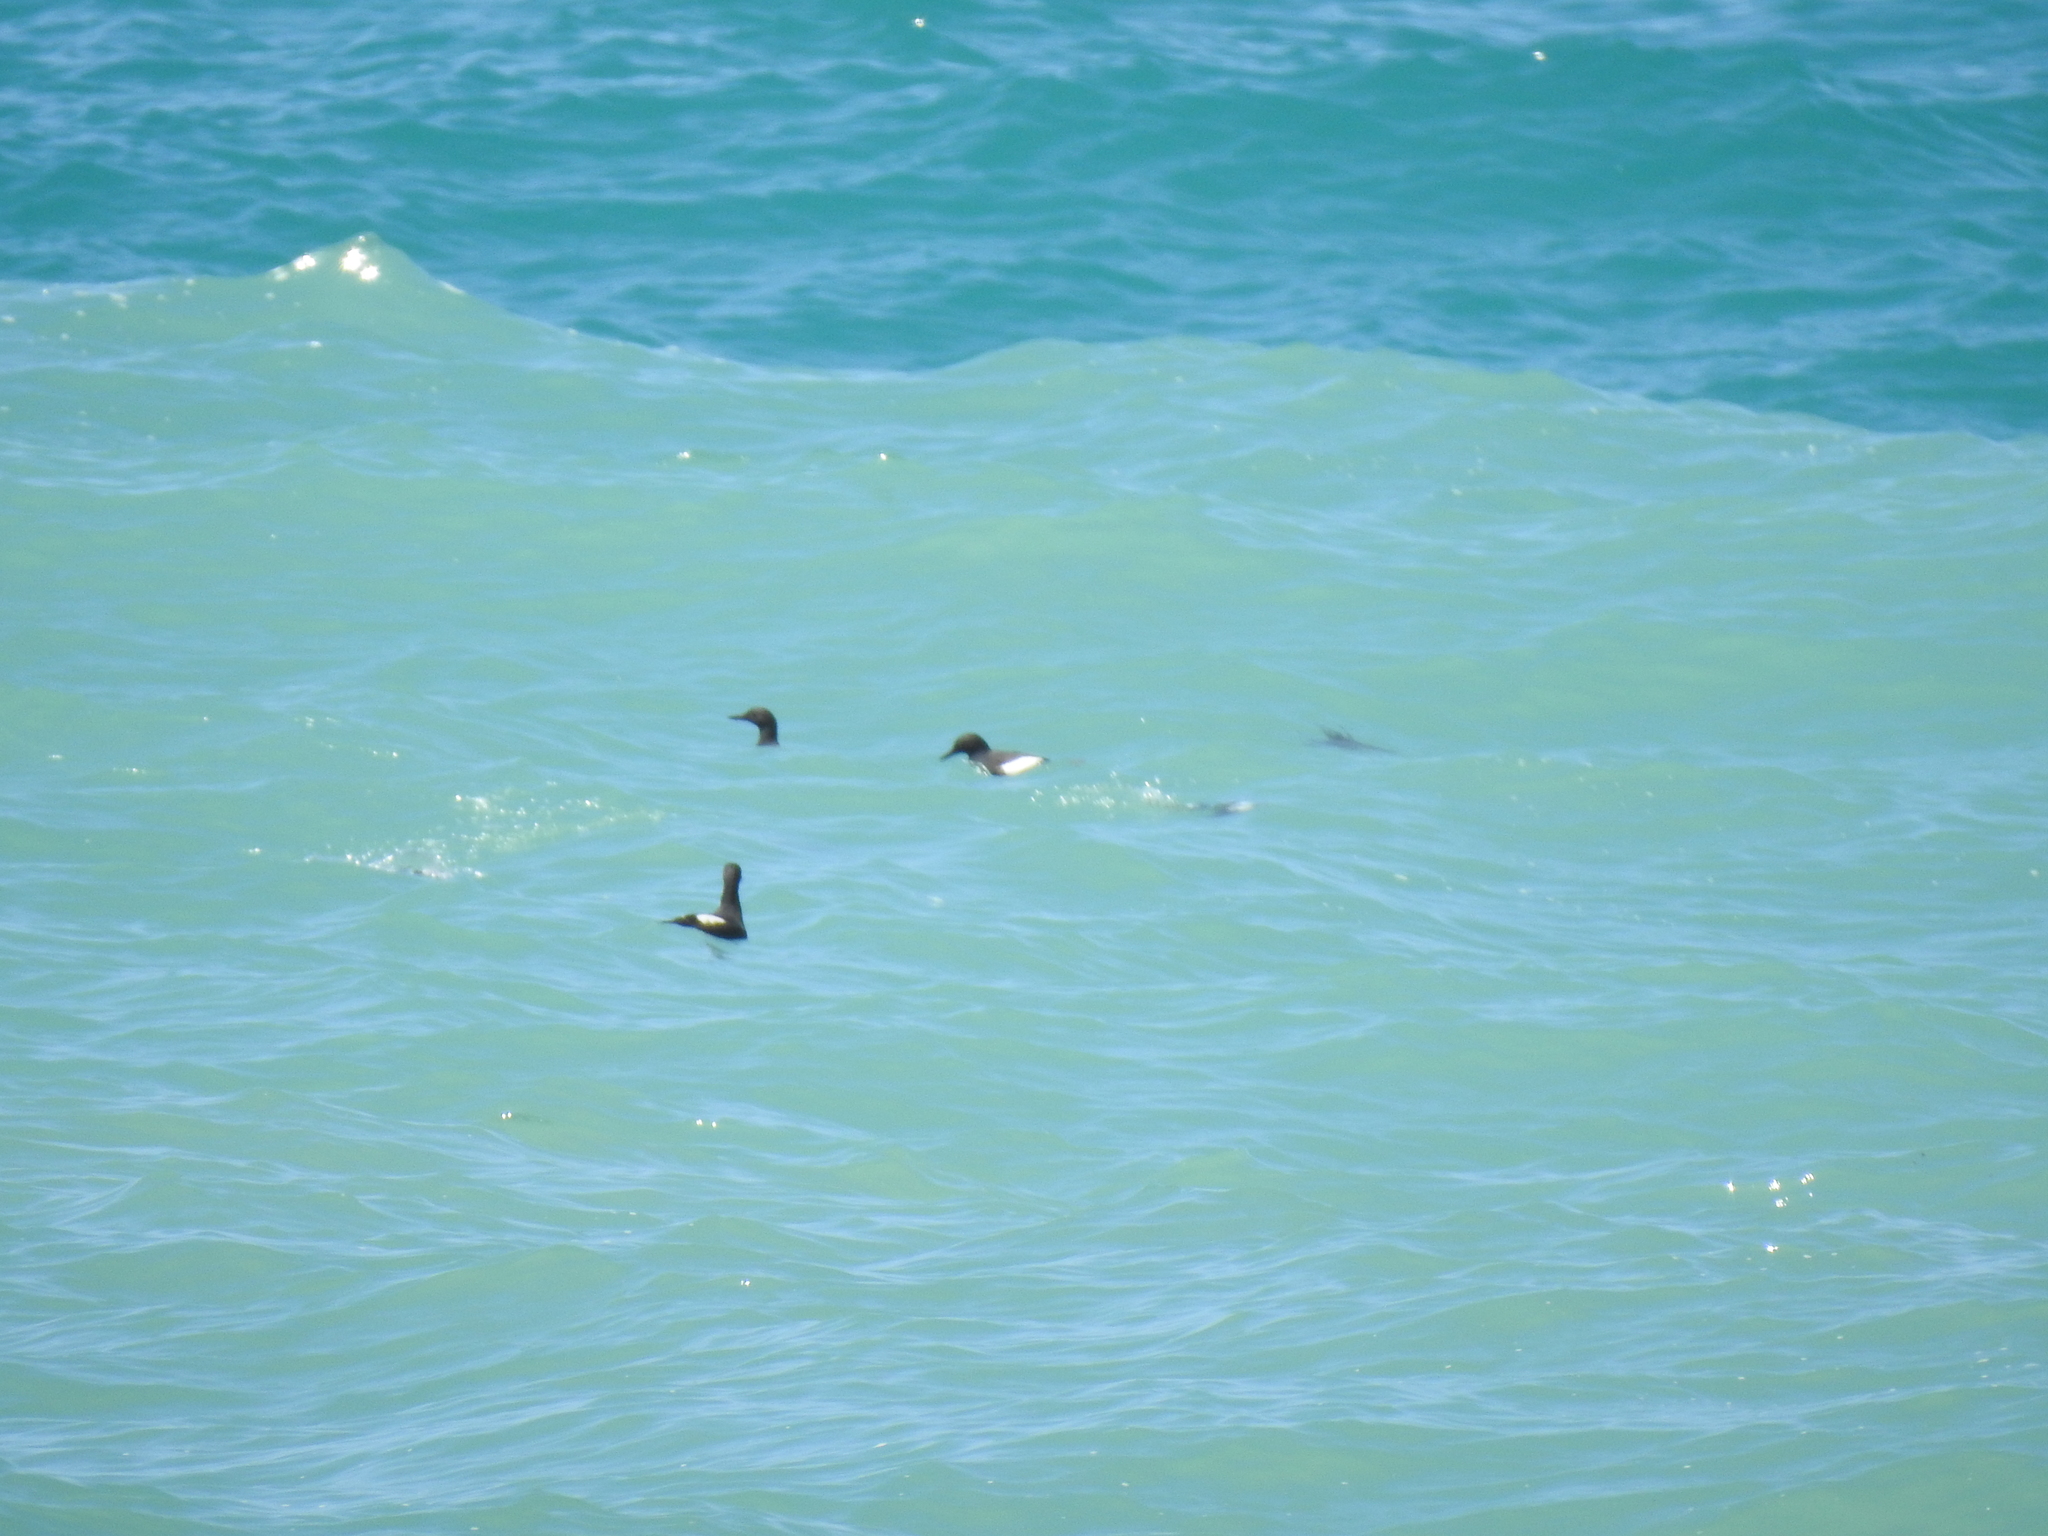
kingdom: Animalia
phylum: Chordata
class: Aves
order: Charadriiformes
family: Alcidae
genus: Cepphus
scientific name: Cepphus columba
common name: Pigeon guillemot
